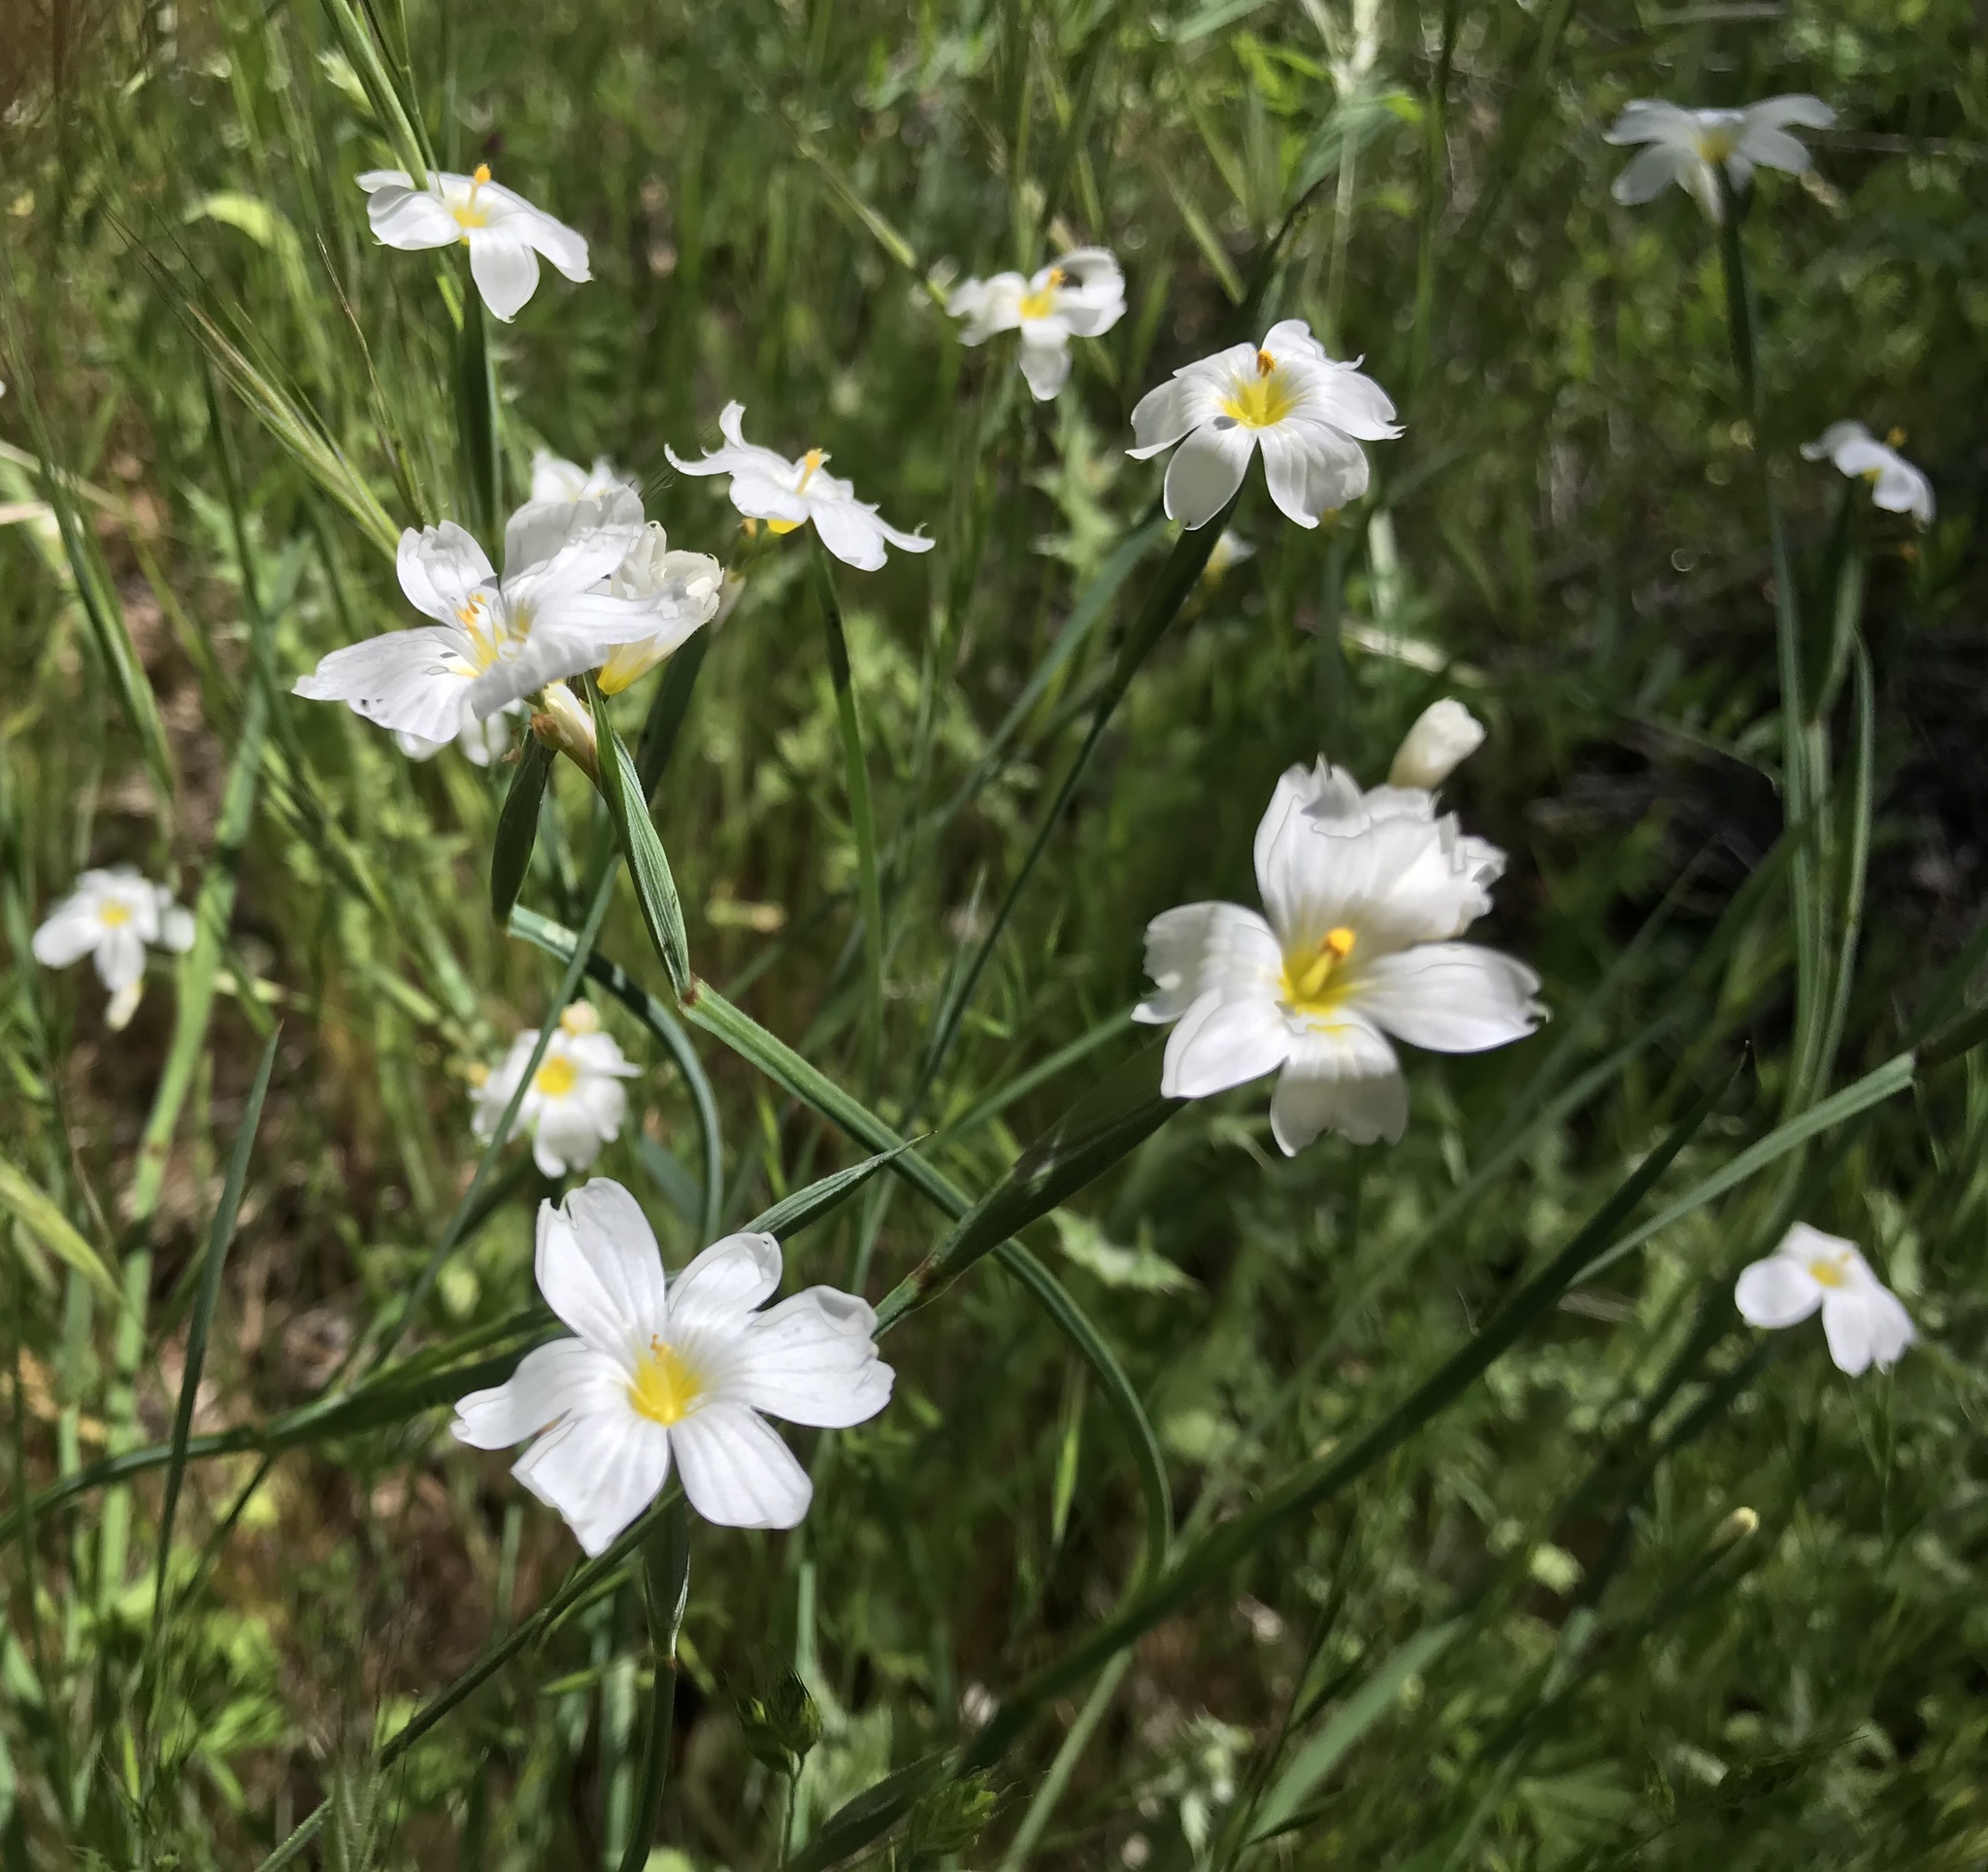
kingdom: Plantae
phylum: Tracheophyta
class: Liliopsida
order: Asparagales
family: Iridaceae
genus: Sisyrinchium
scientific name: Sisyrinchium bellum
